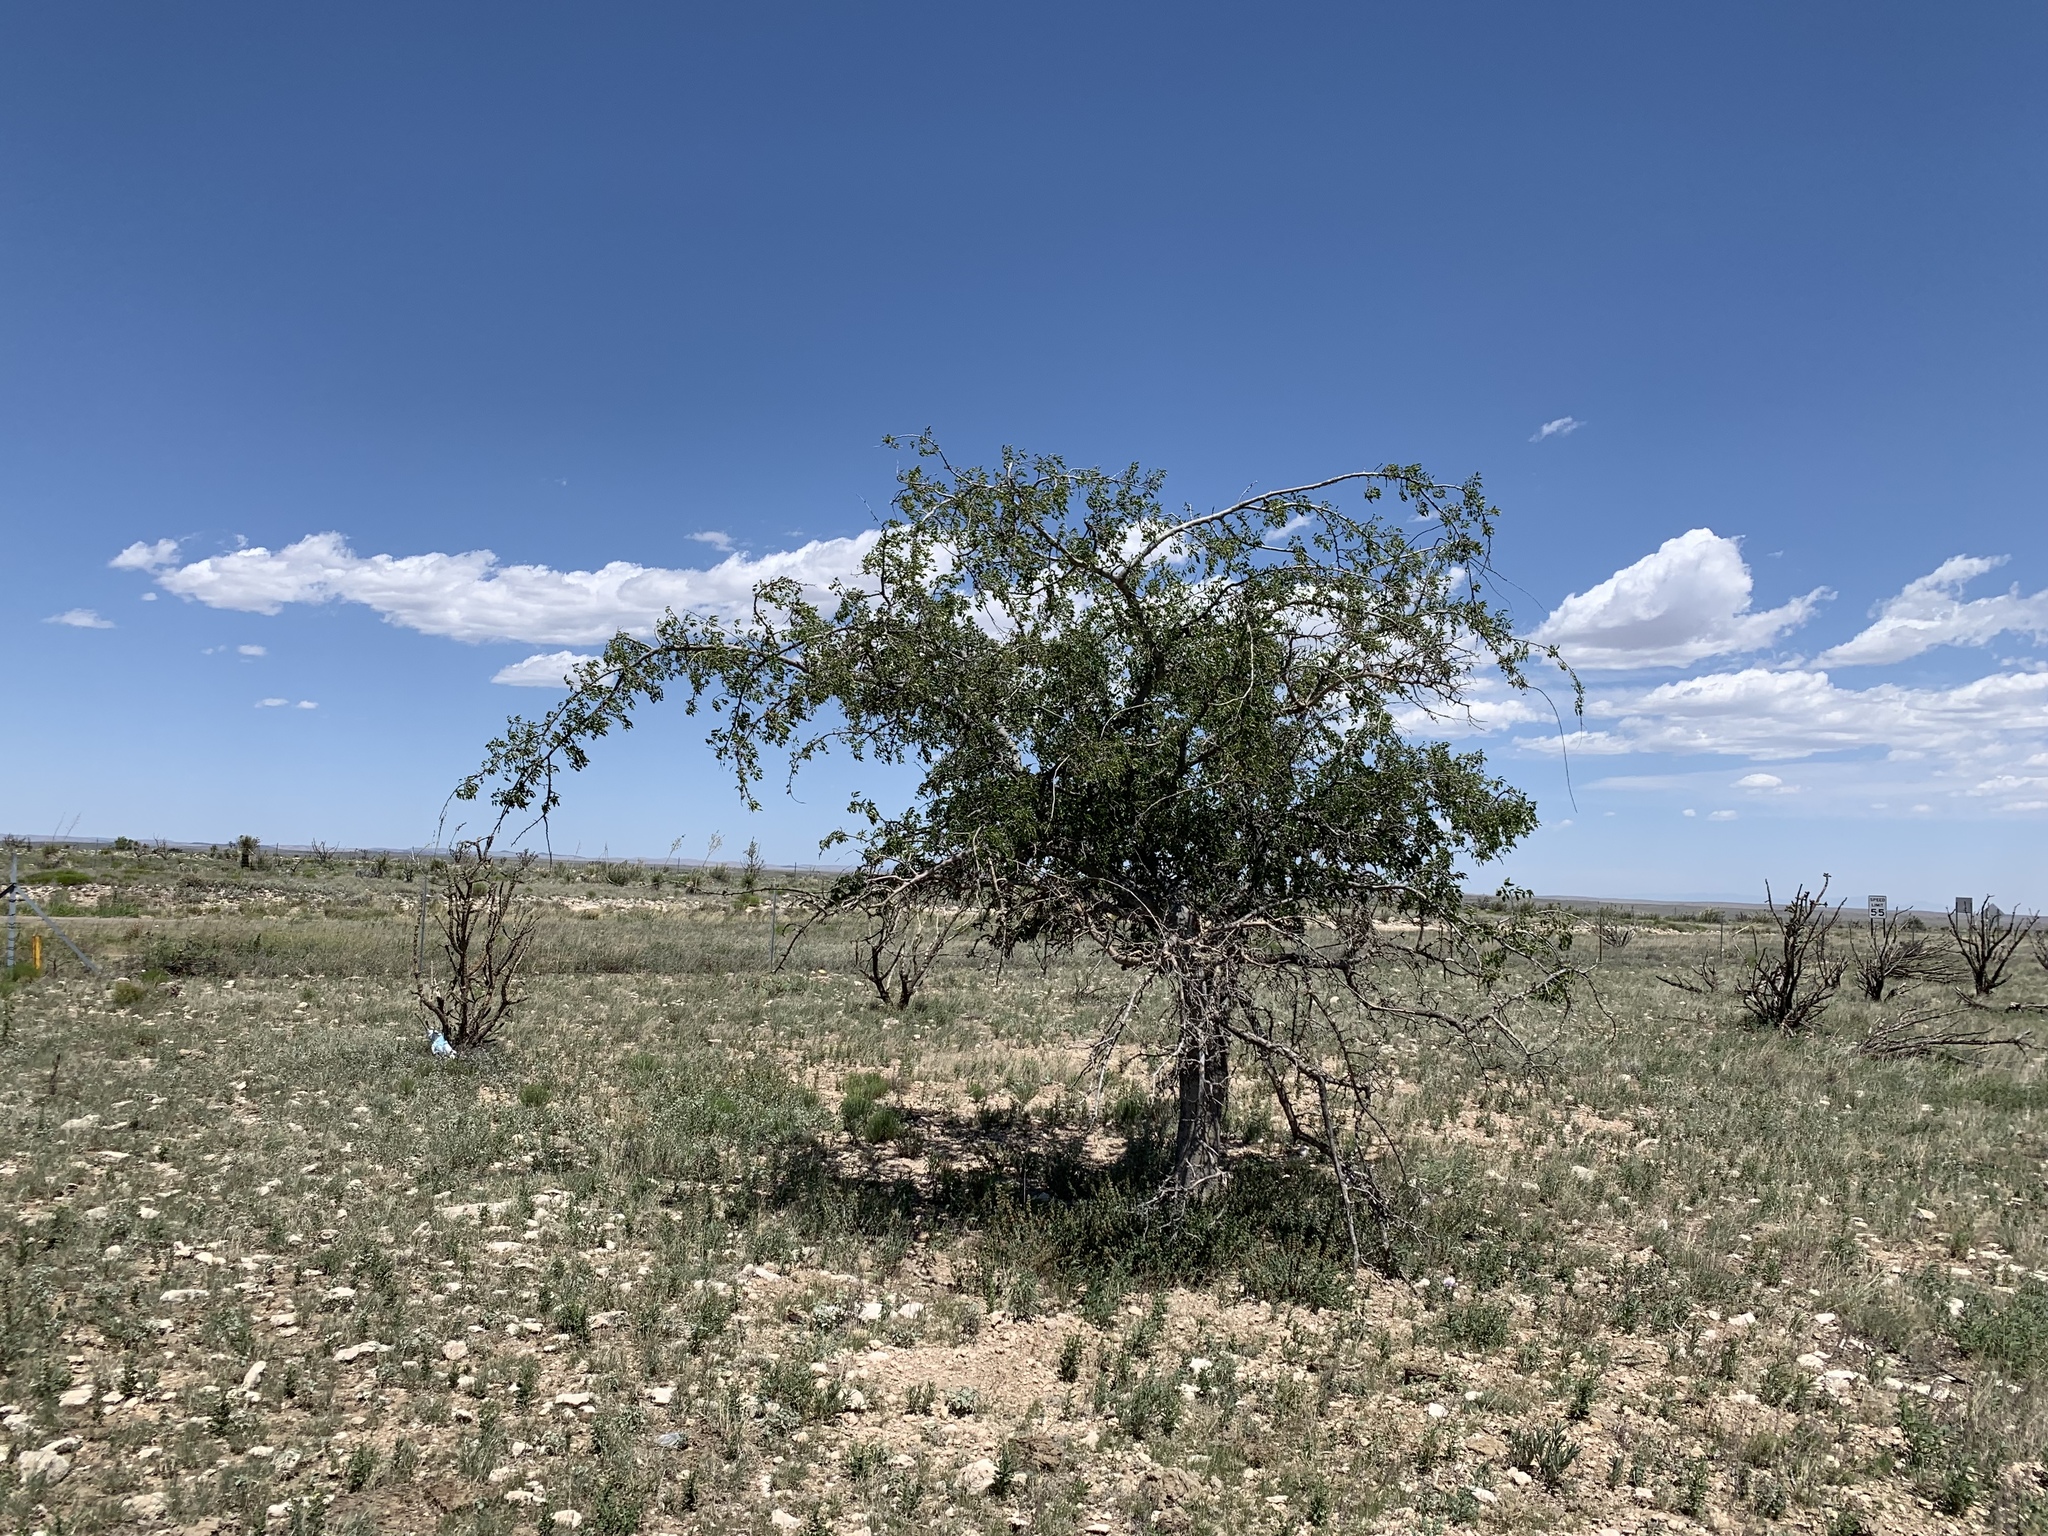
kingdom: Plantae
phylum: Tracheophyta
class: Magnoliopsida
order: Rosales
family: Cannabaceae
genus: Celtis
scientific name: Celtis reticulata
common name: Netleaf hackberry
